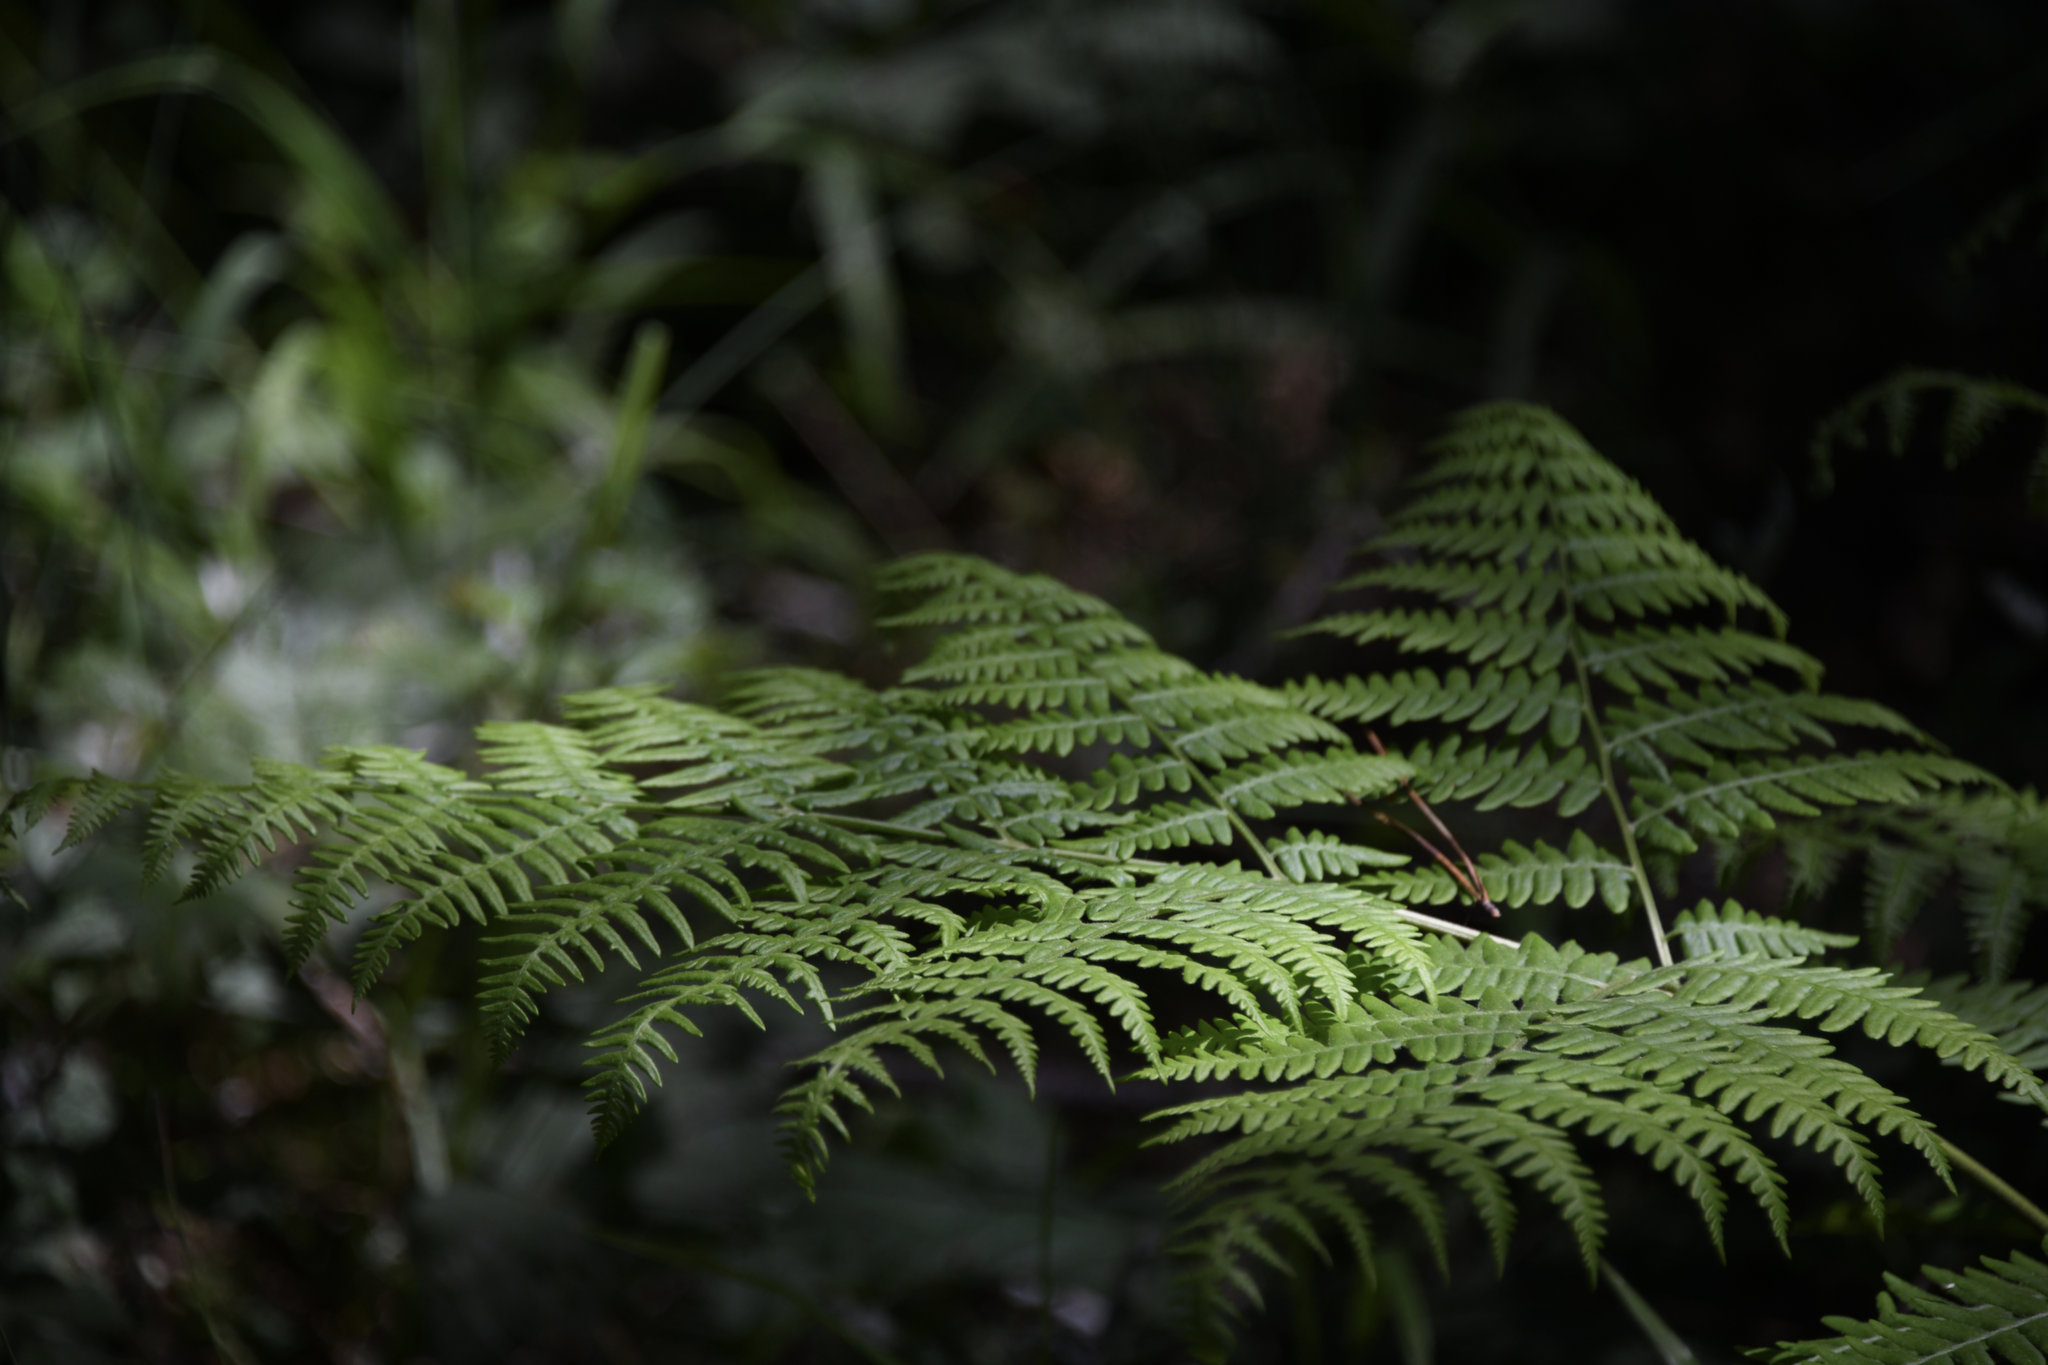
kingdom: Plantae
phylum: Tracheophyta
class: Polypodiopsida
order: Polypodiales
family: Dennstaedtiaceae
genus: Pteridium
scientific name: Pteridium aquilinum
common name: Bracken
